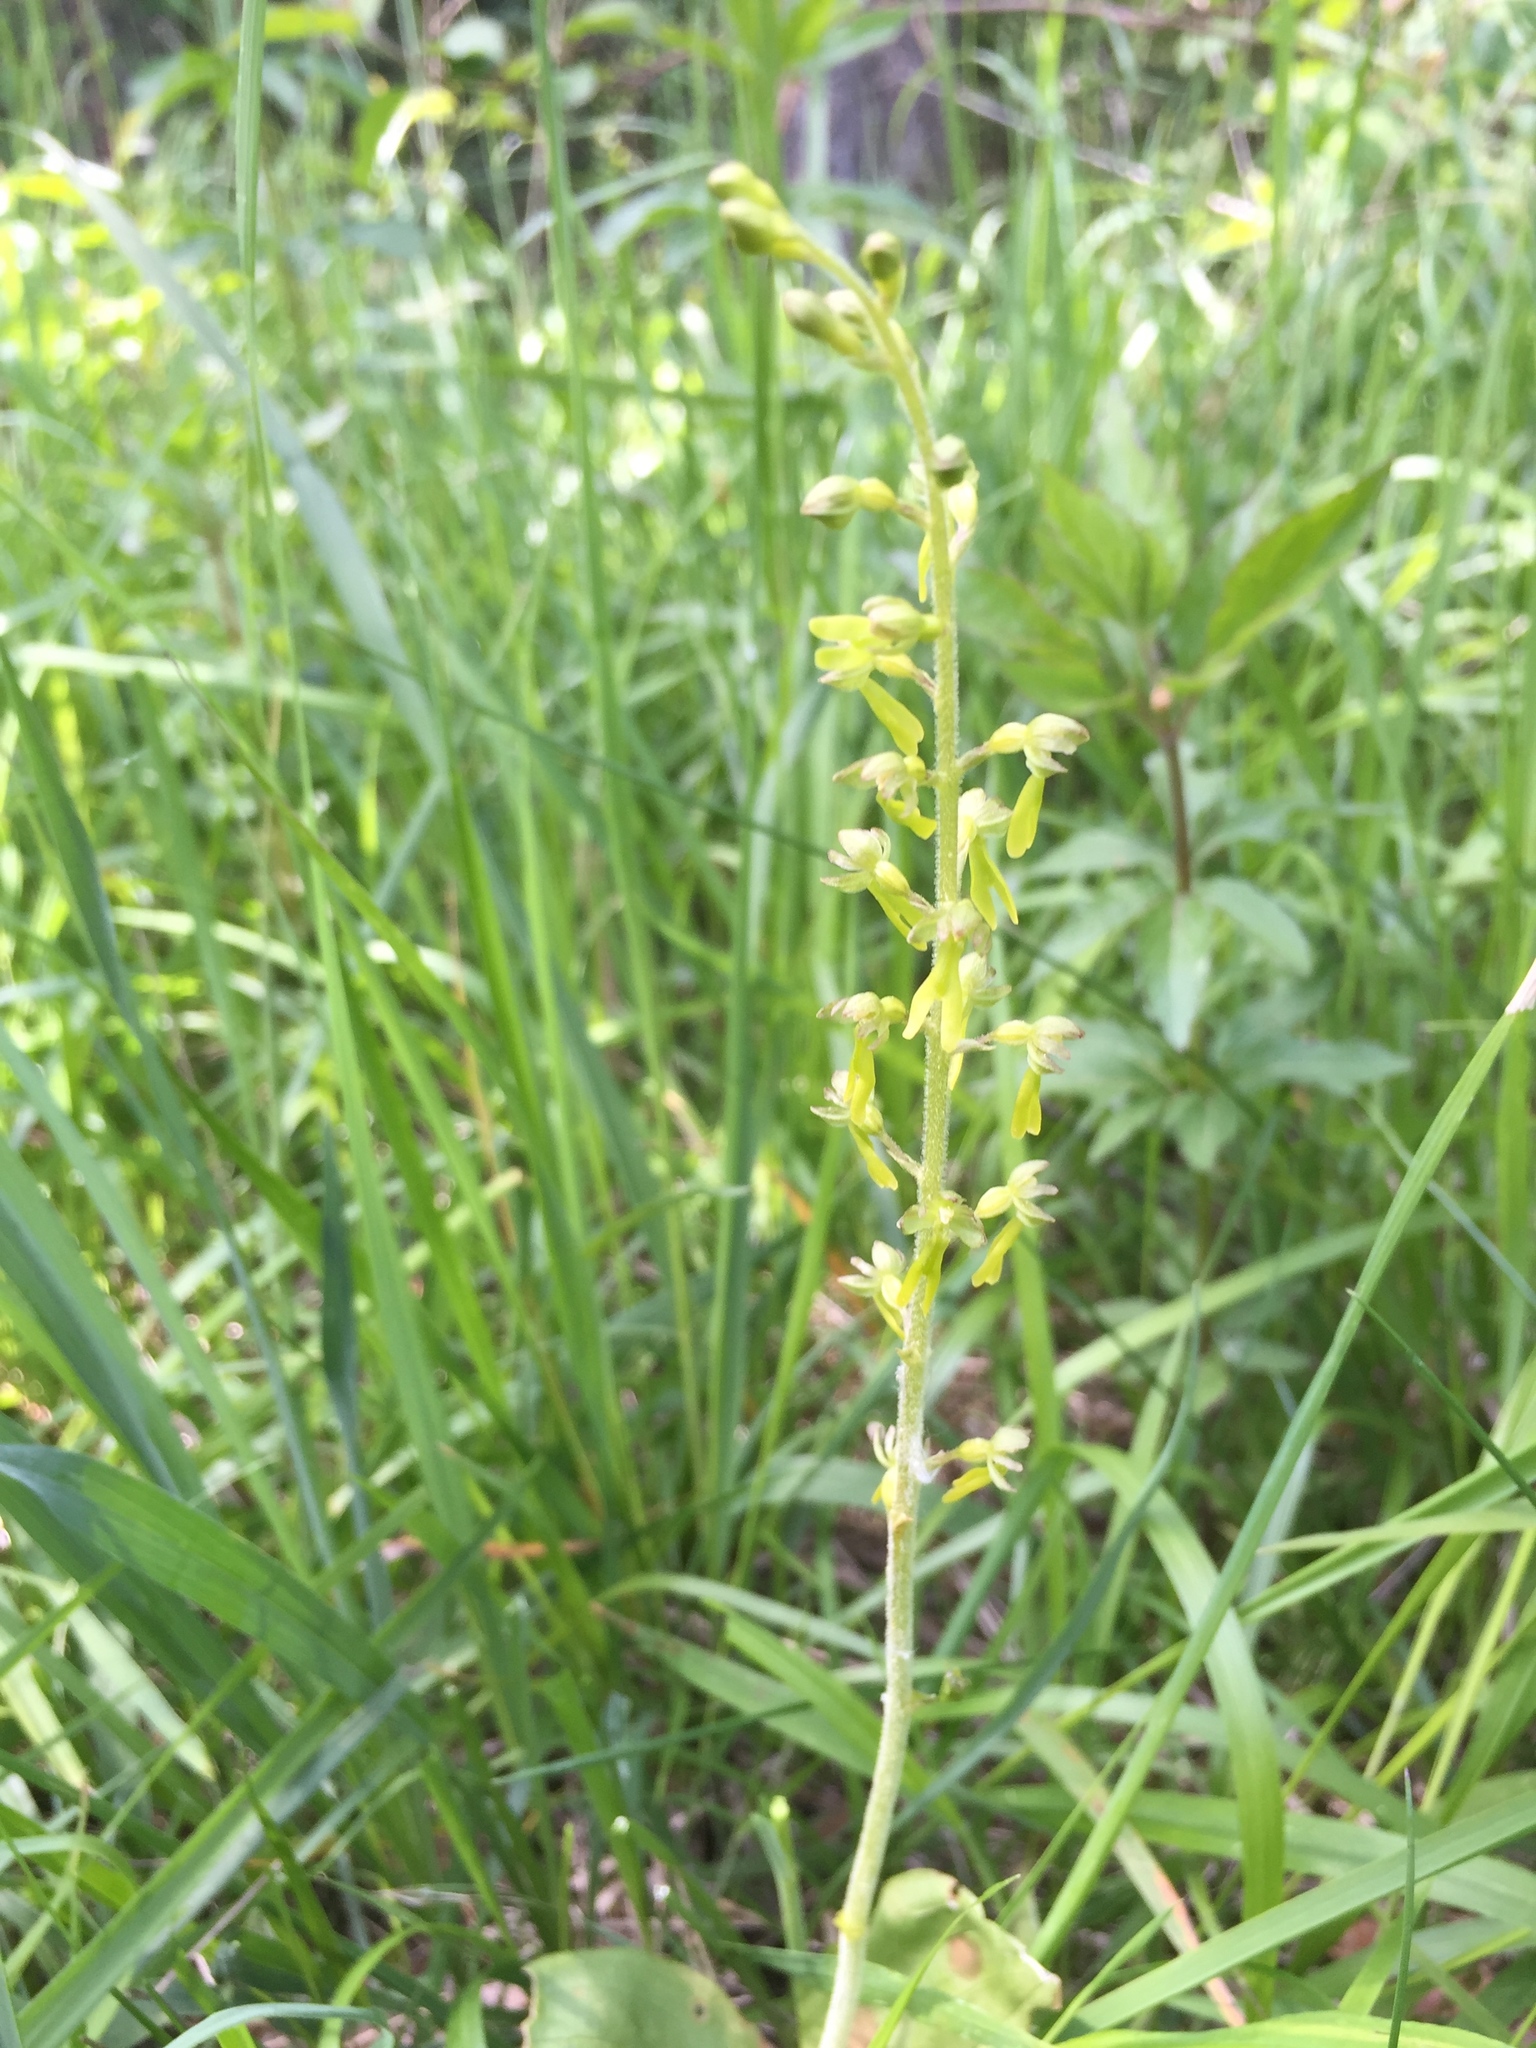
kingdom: Plantae
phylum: Tracheophyta
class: Liliopsida
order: Asparagales
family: Orchidaceae
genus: Neottia
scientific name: Neottia ovata
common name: Common twayblade
